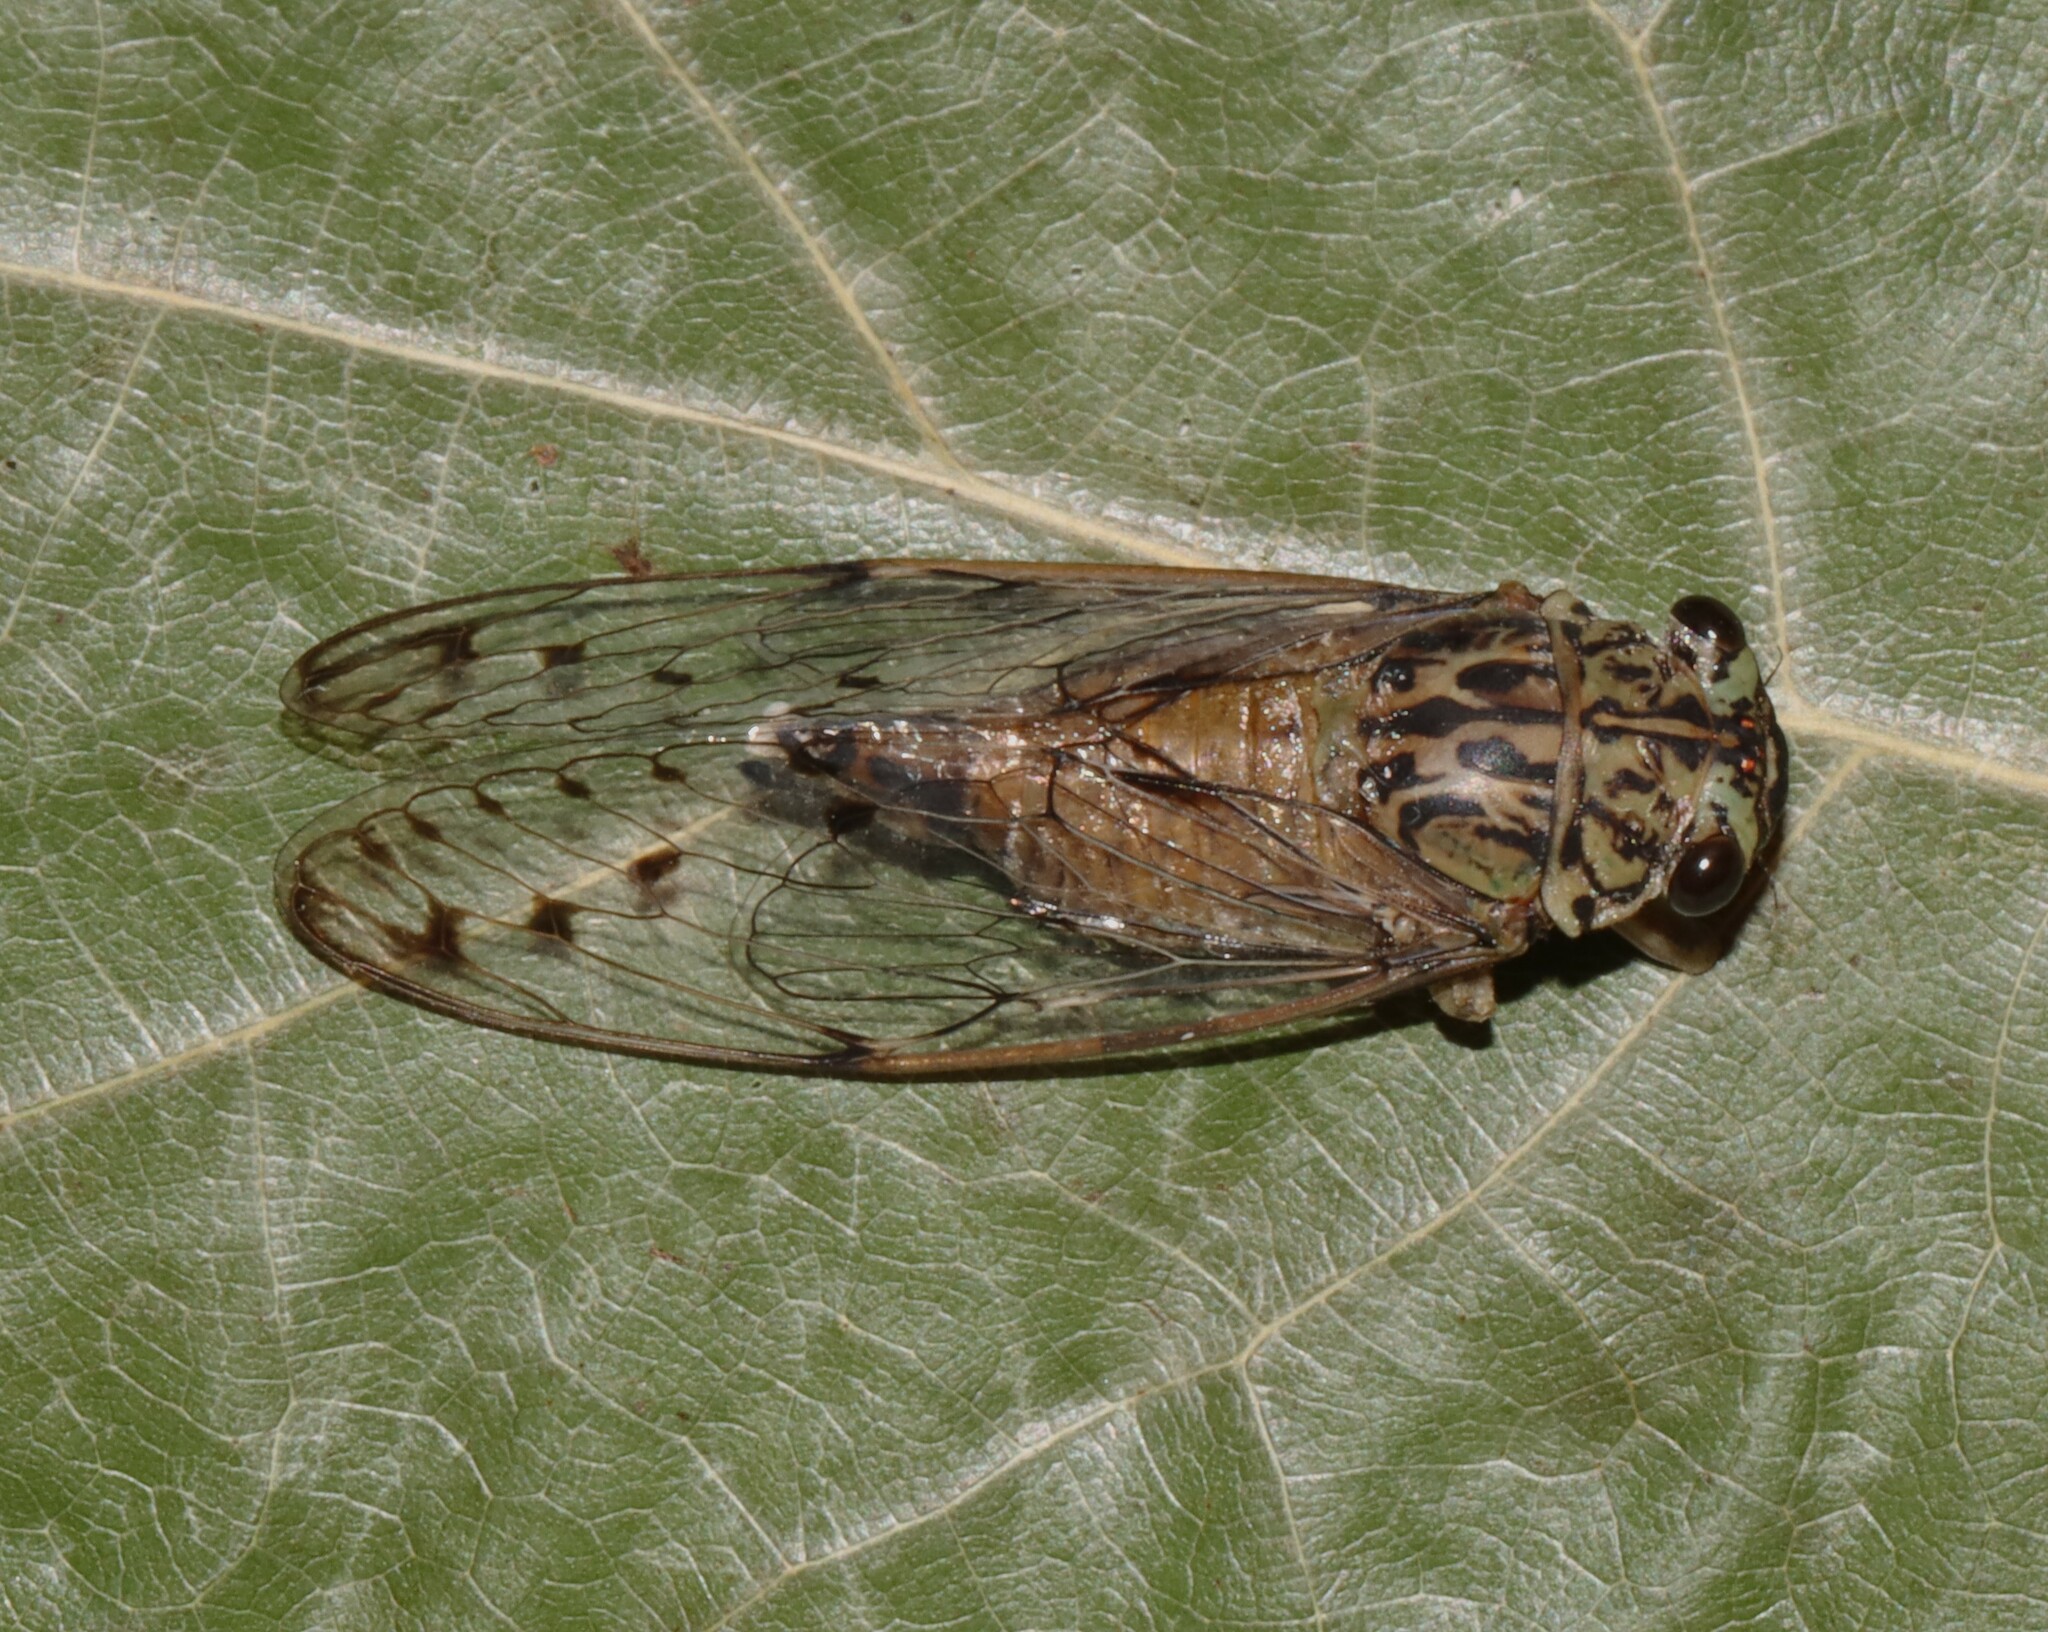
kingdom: Animalia
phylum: Arthropoda
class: Insecta
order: Hemiptera
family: Cicadidae
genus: Neocicada
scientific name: Neocicada hieroglyphica
